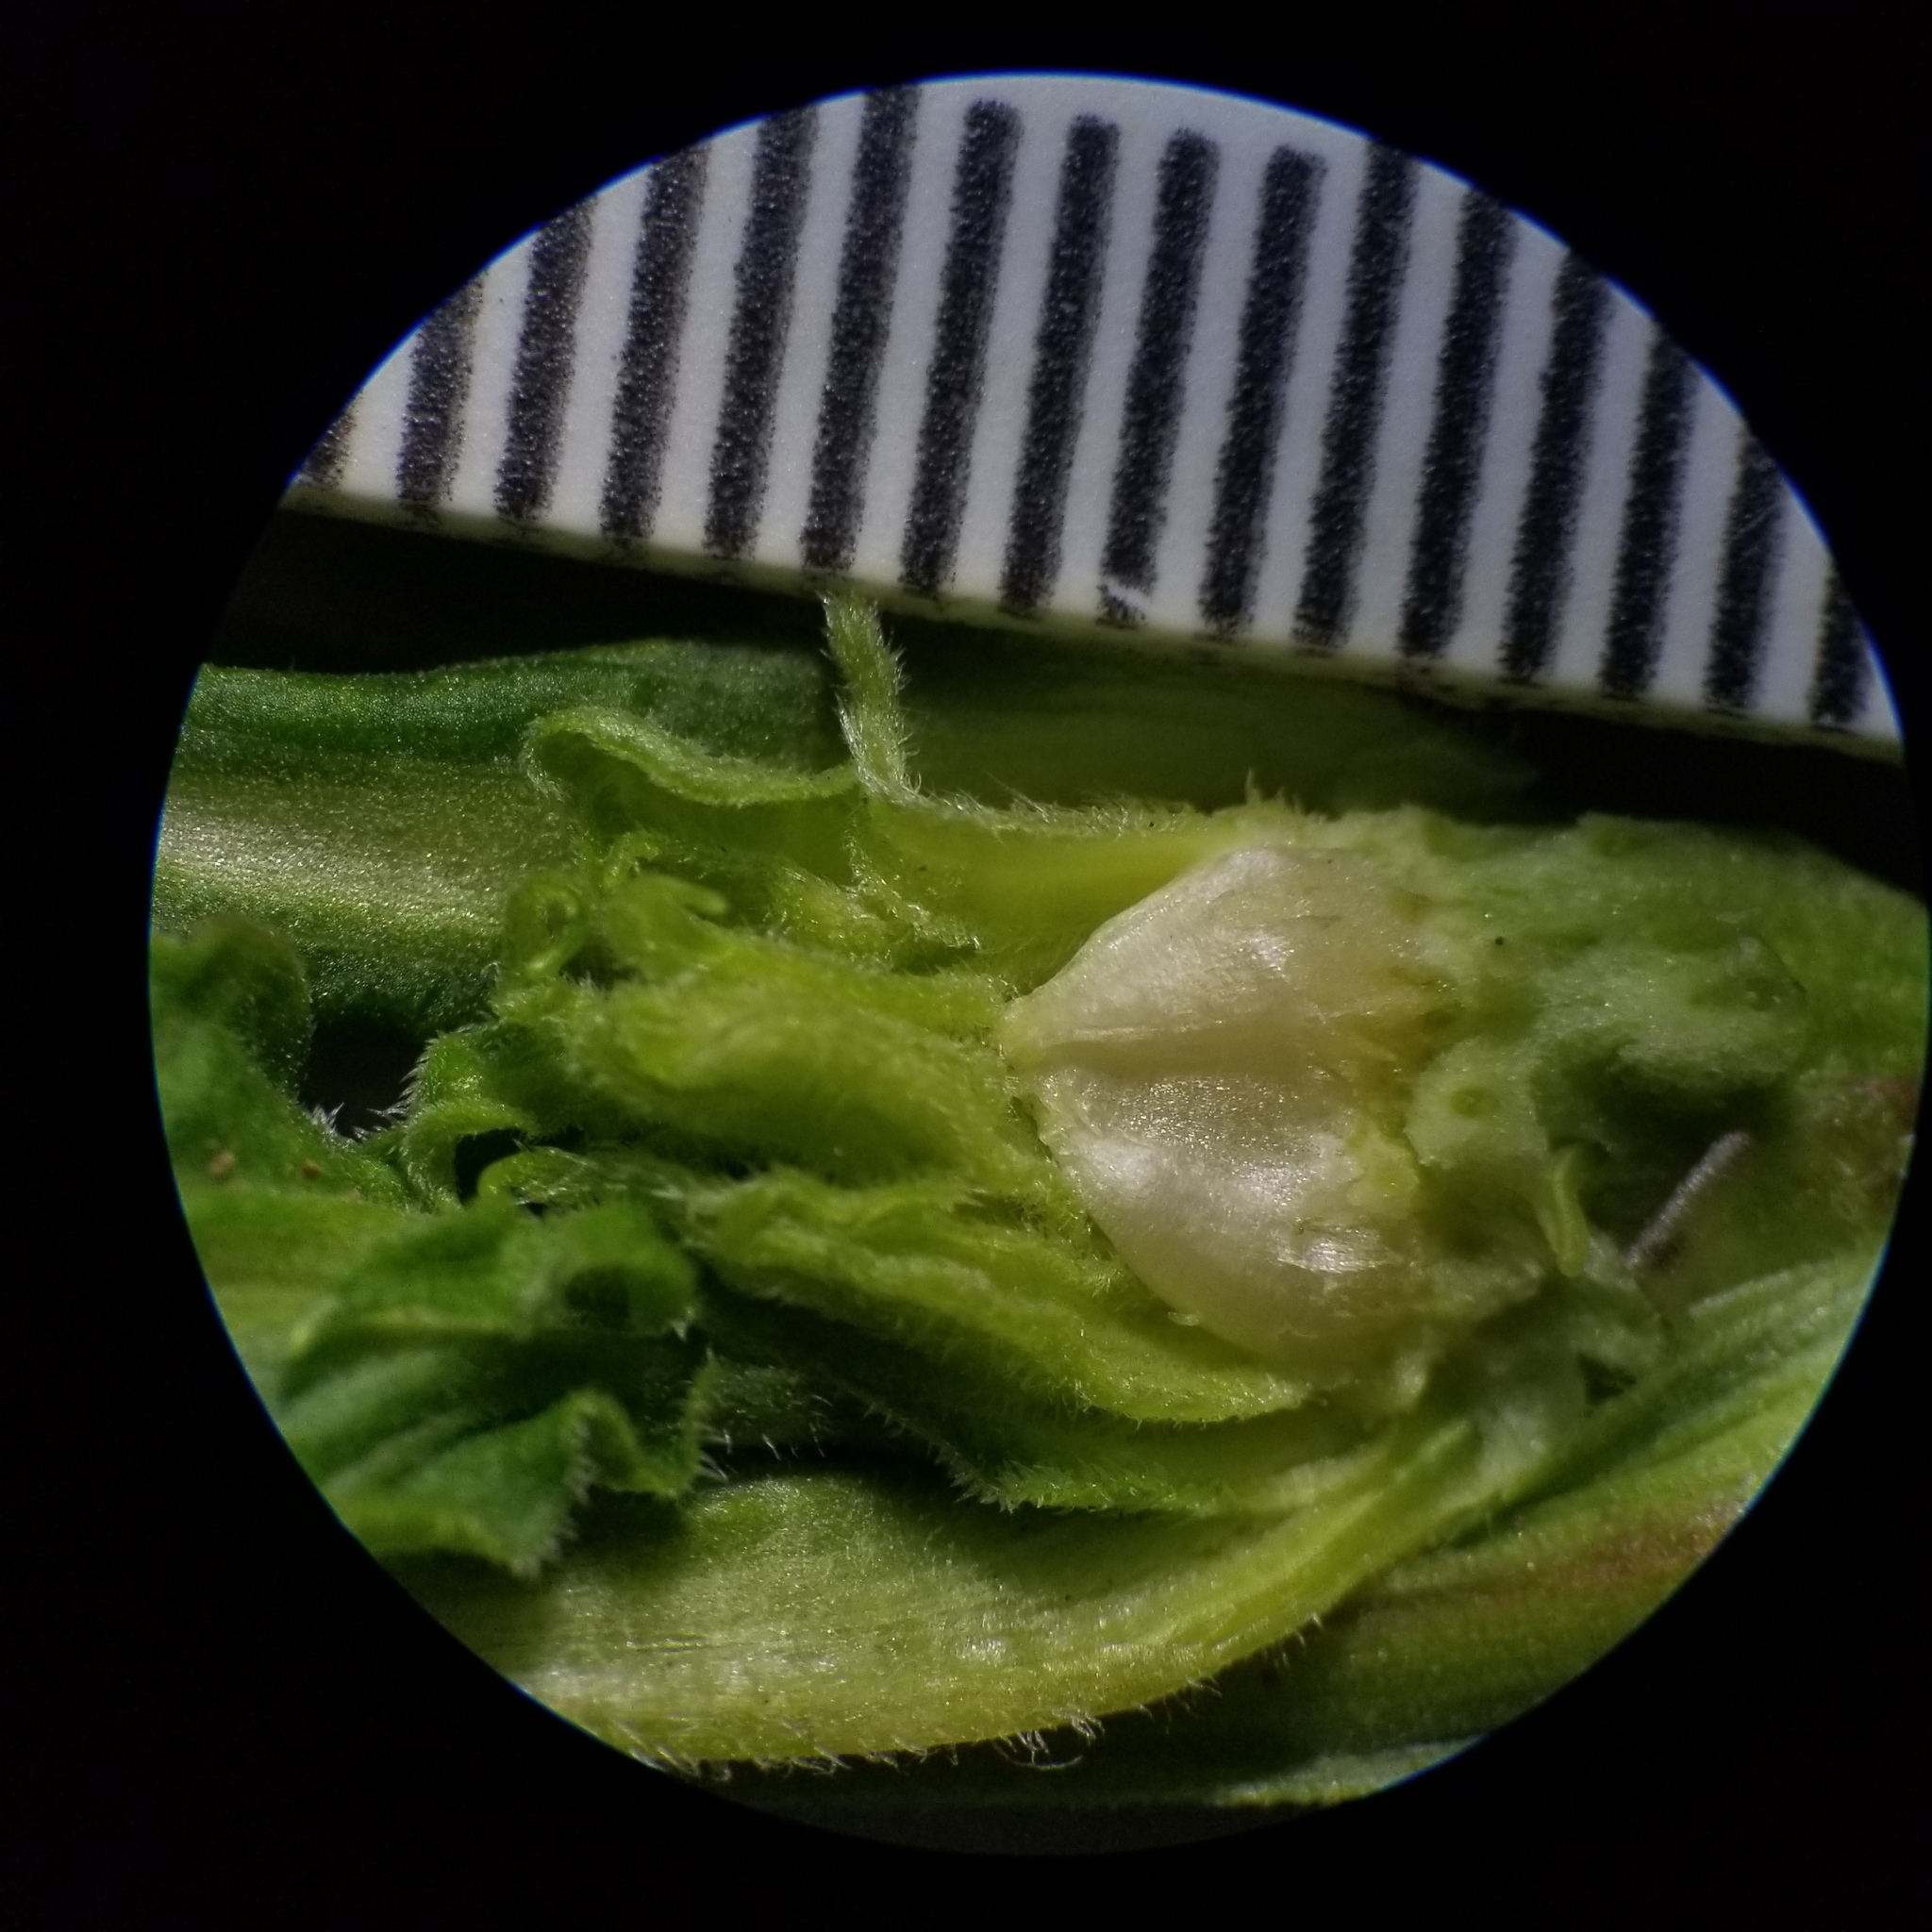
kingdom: Animalia
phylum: Arthropoda
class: Insecta
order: Diptera
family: Cecidomyiidae
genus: Rhopalomyia
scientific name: Rhopalomyia solidaginis
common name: Goldenrod bunch gall midge
